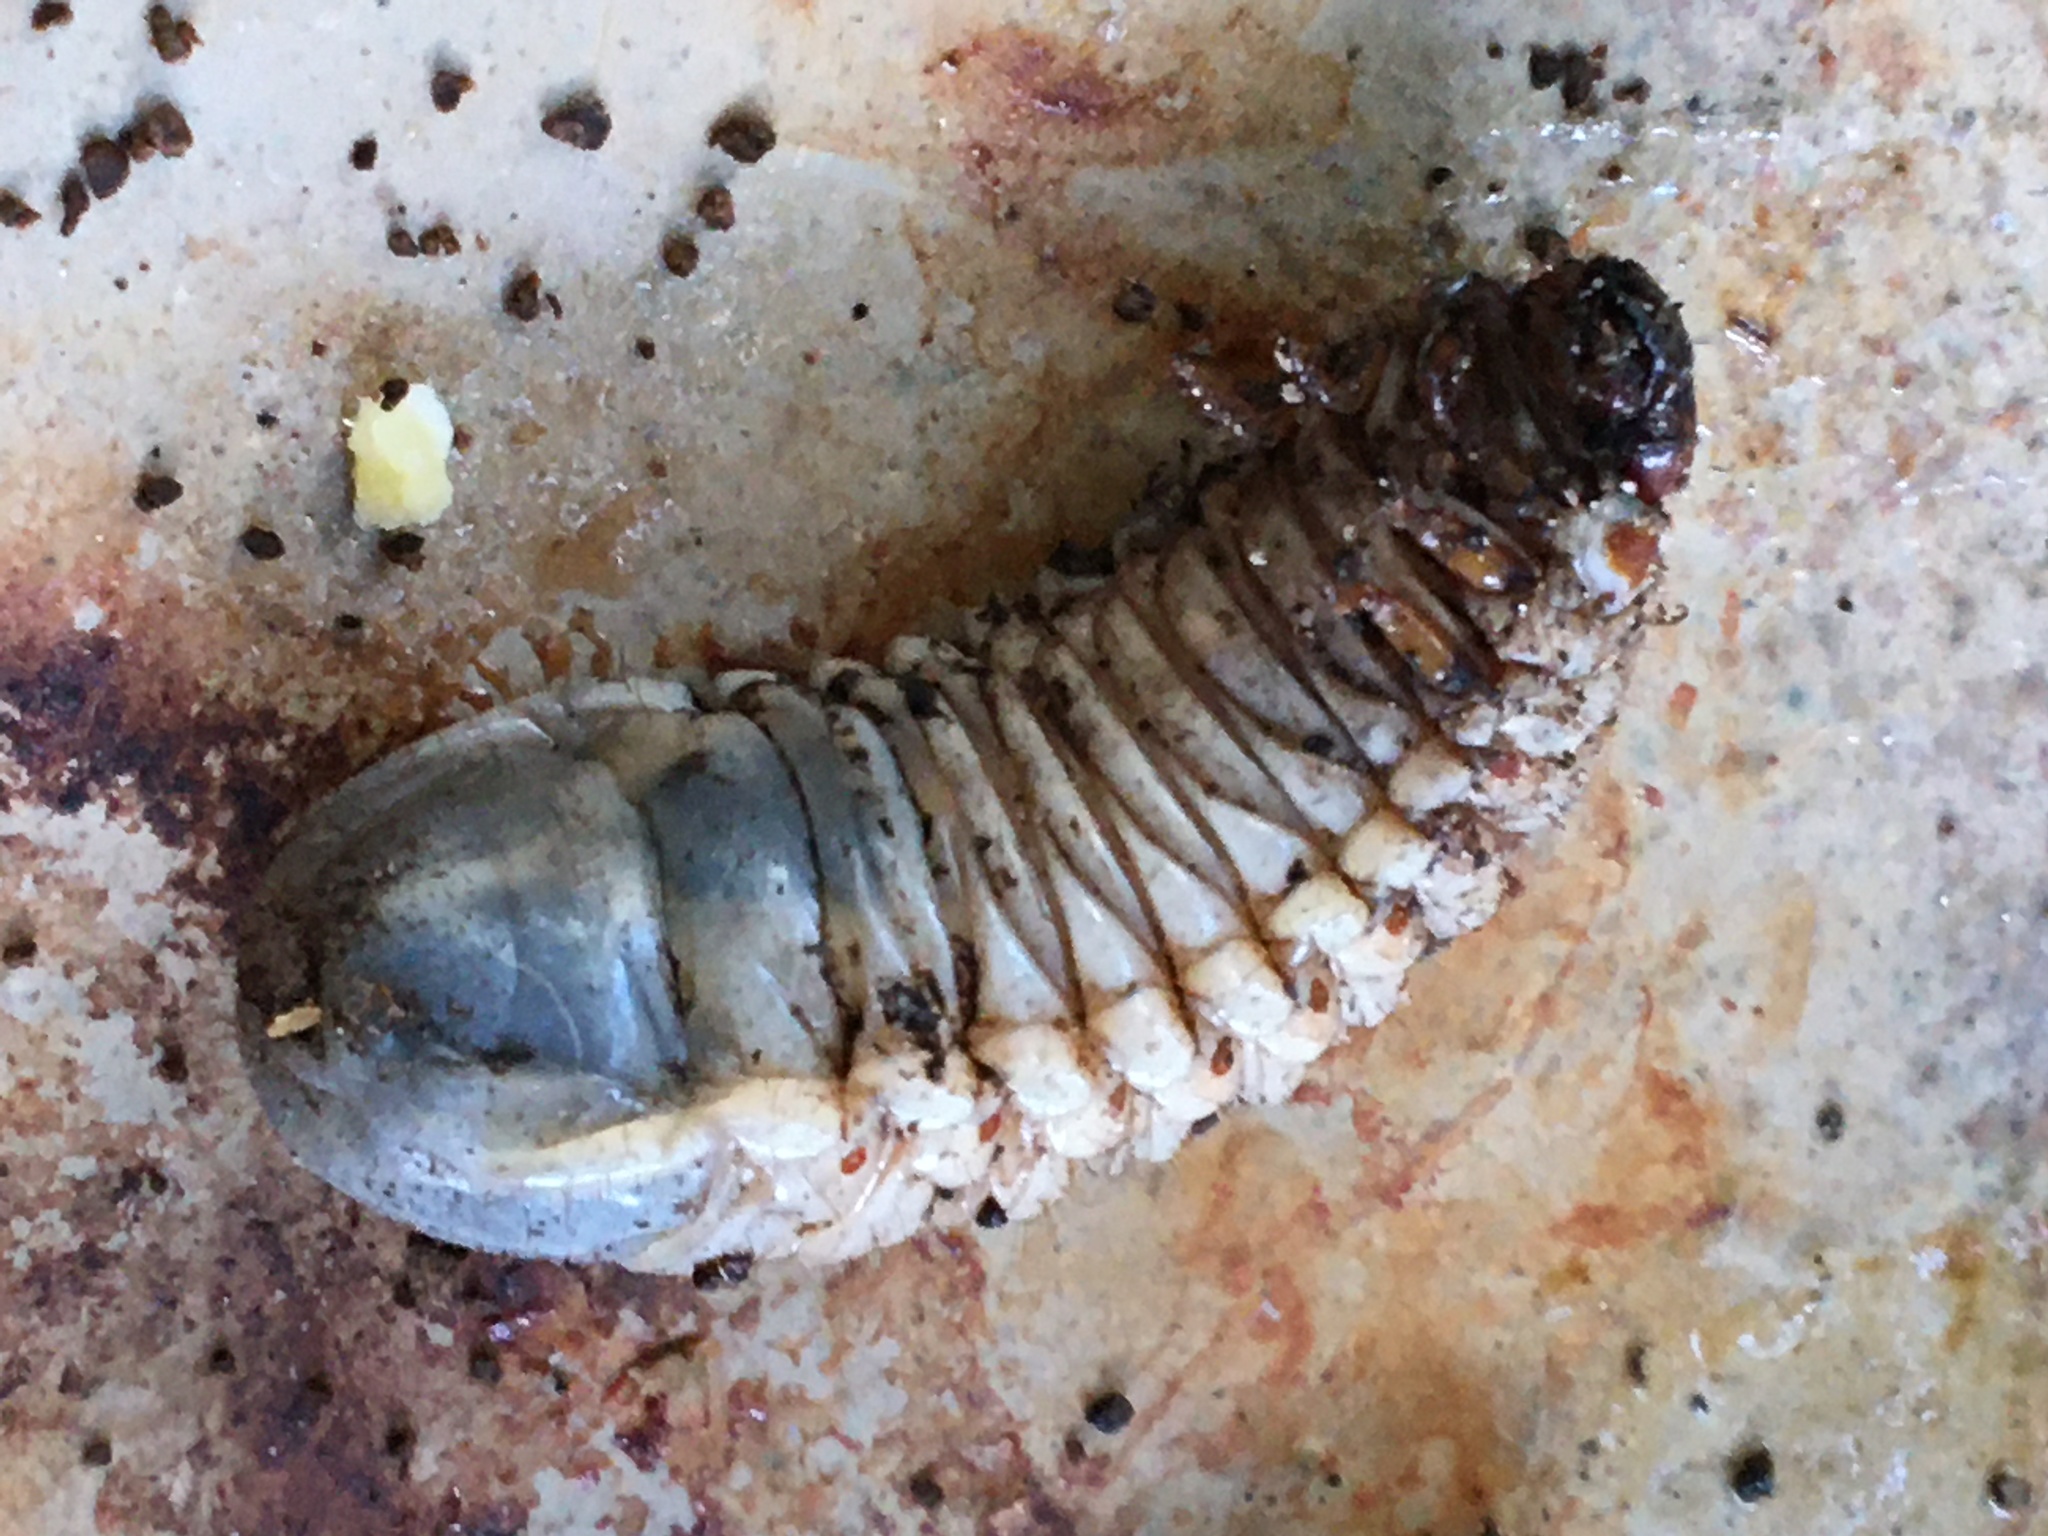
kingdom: Animalia
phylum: Arthropoda
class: Insecta
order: Coleoptera
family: Scarabaeidae
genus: Oryctes
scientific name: Oryctes boas
